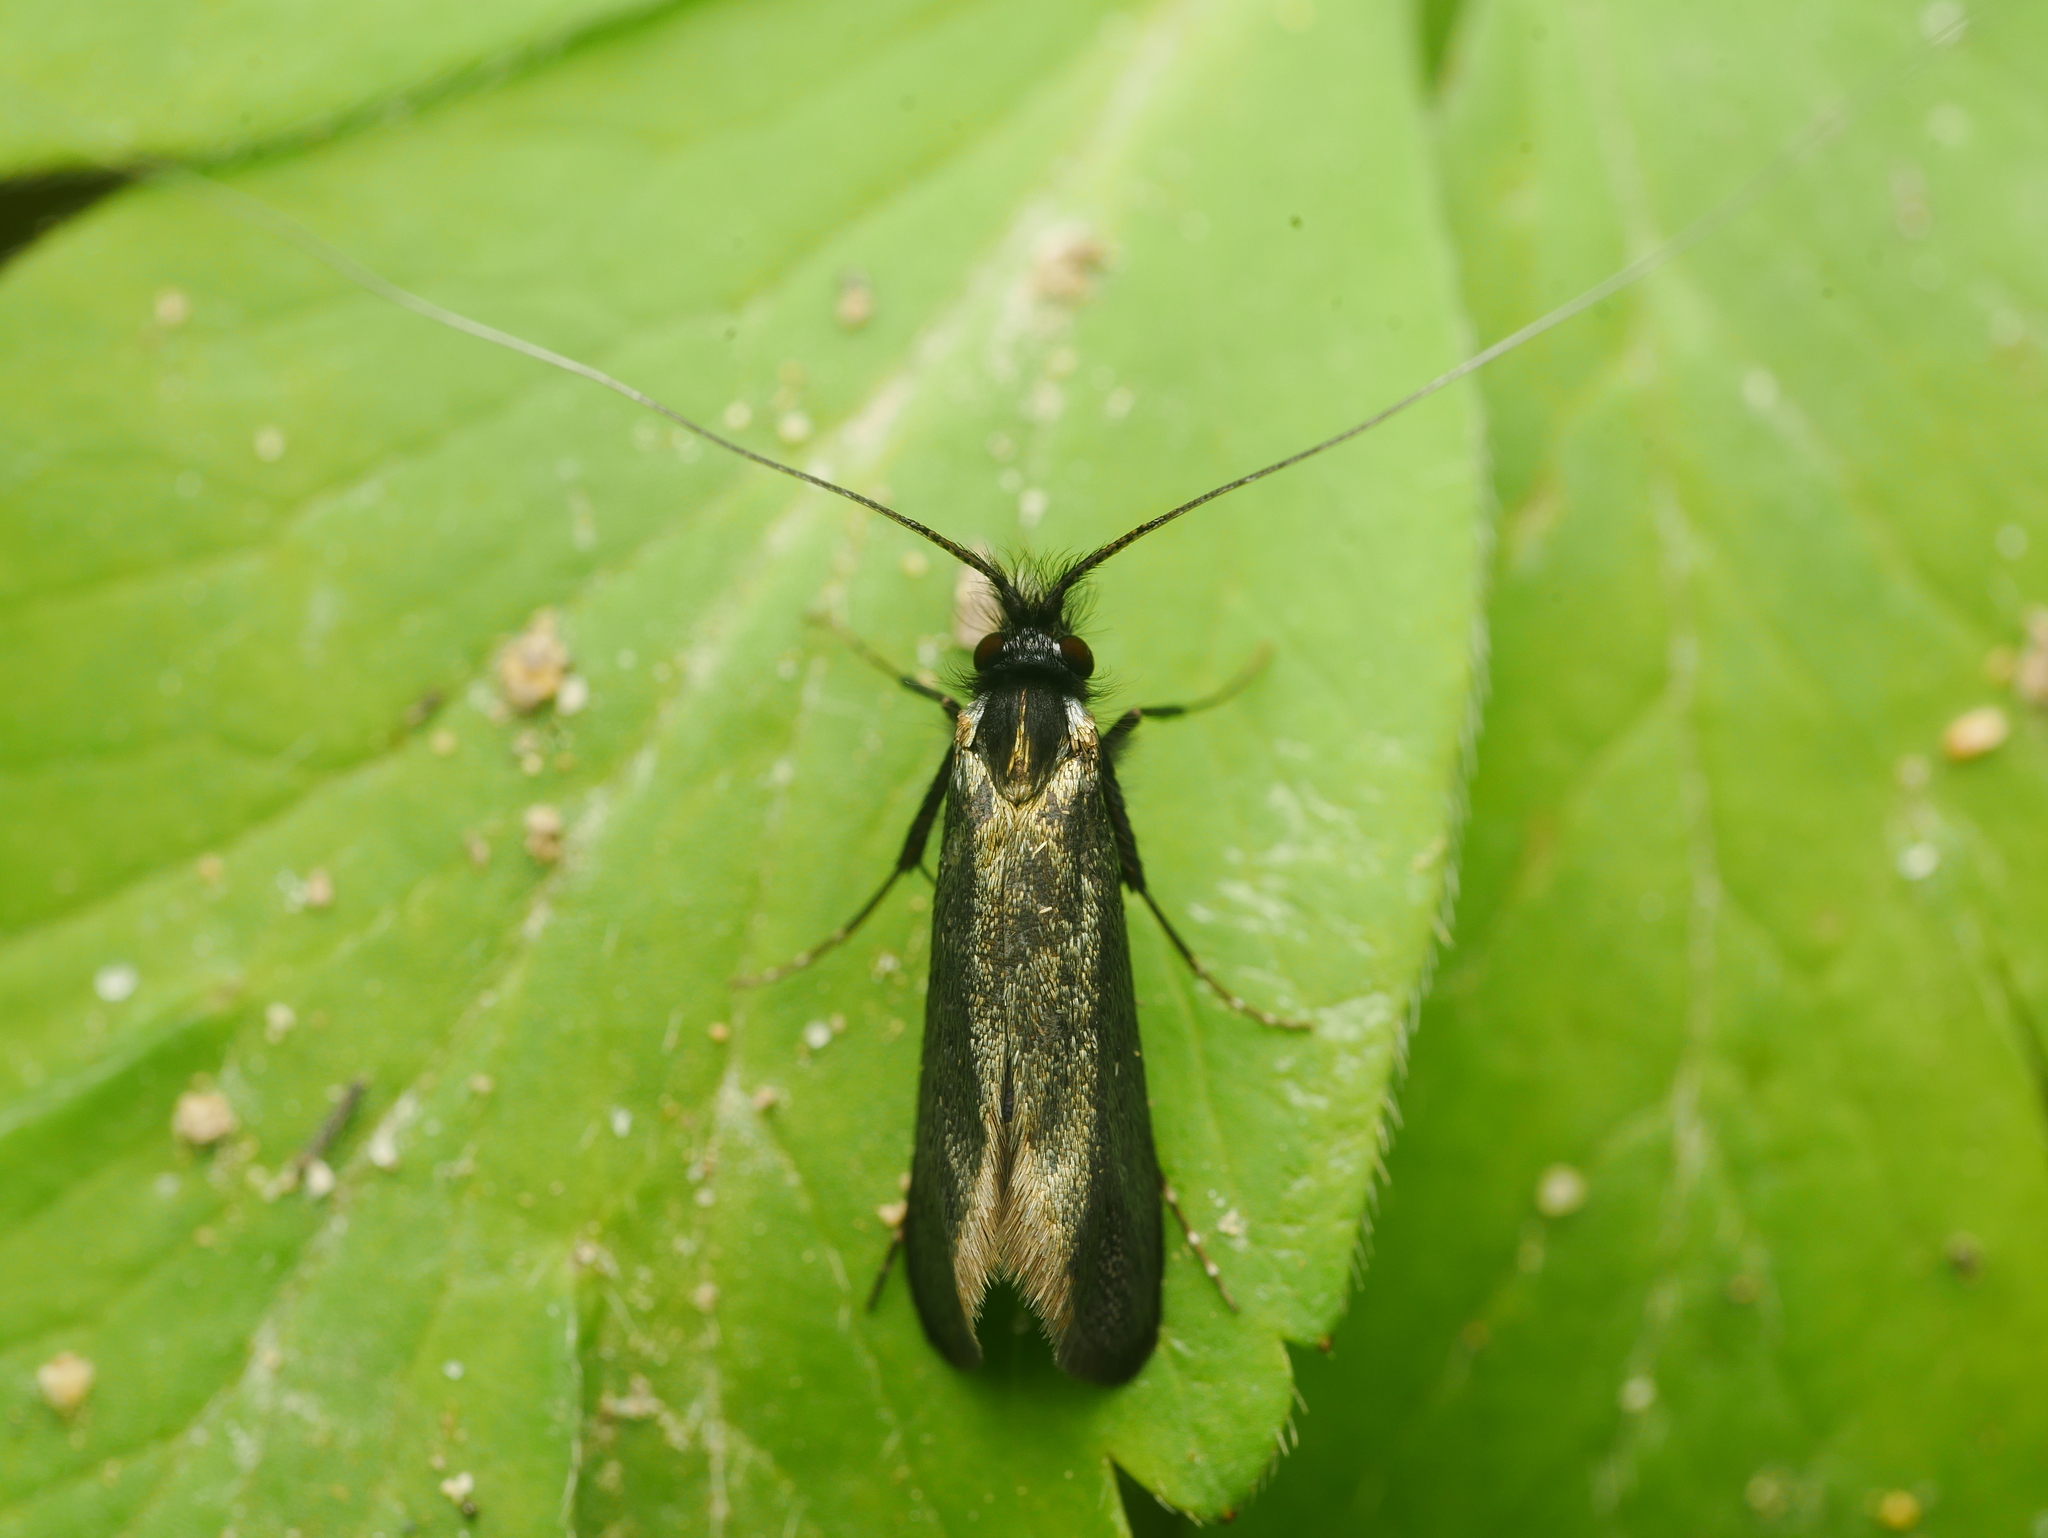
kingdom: Animalia
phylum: Arthropoda
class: Insecta
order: Lepidoptera
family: Adelidae
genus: Adela
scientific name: Adela viridella
